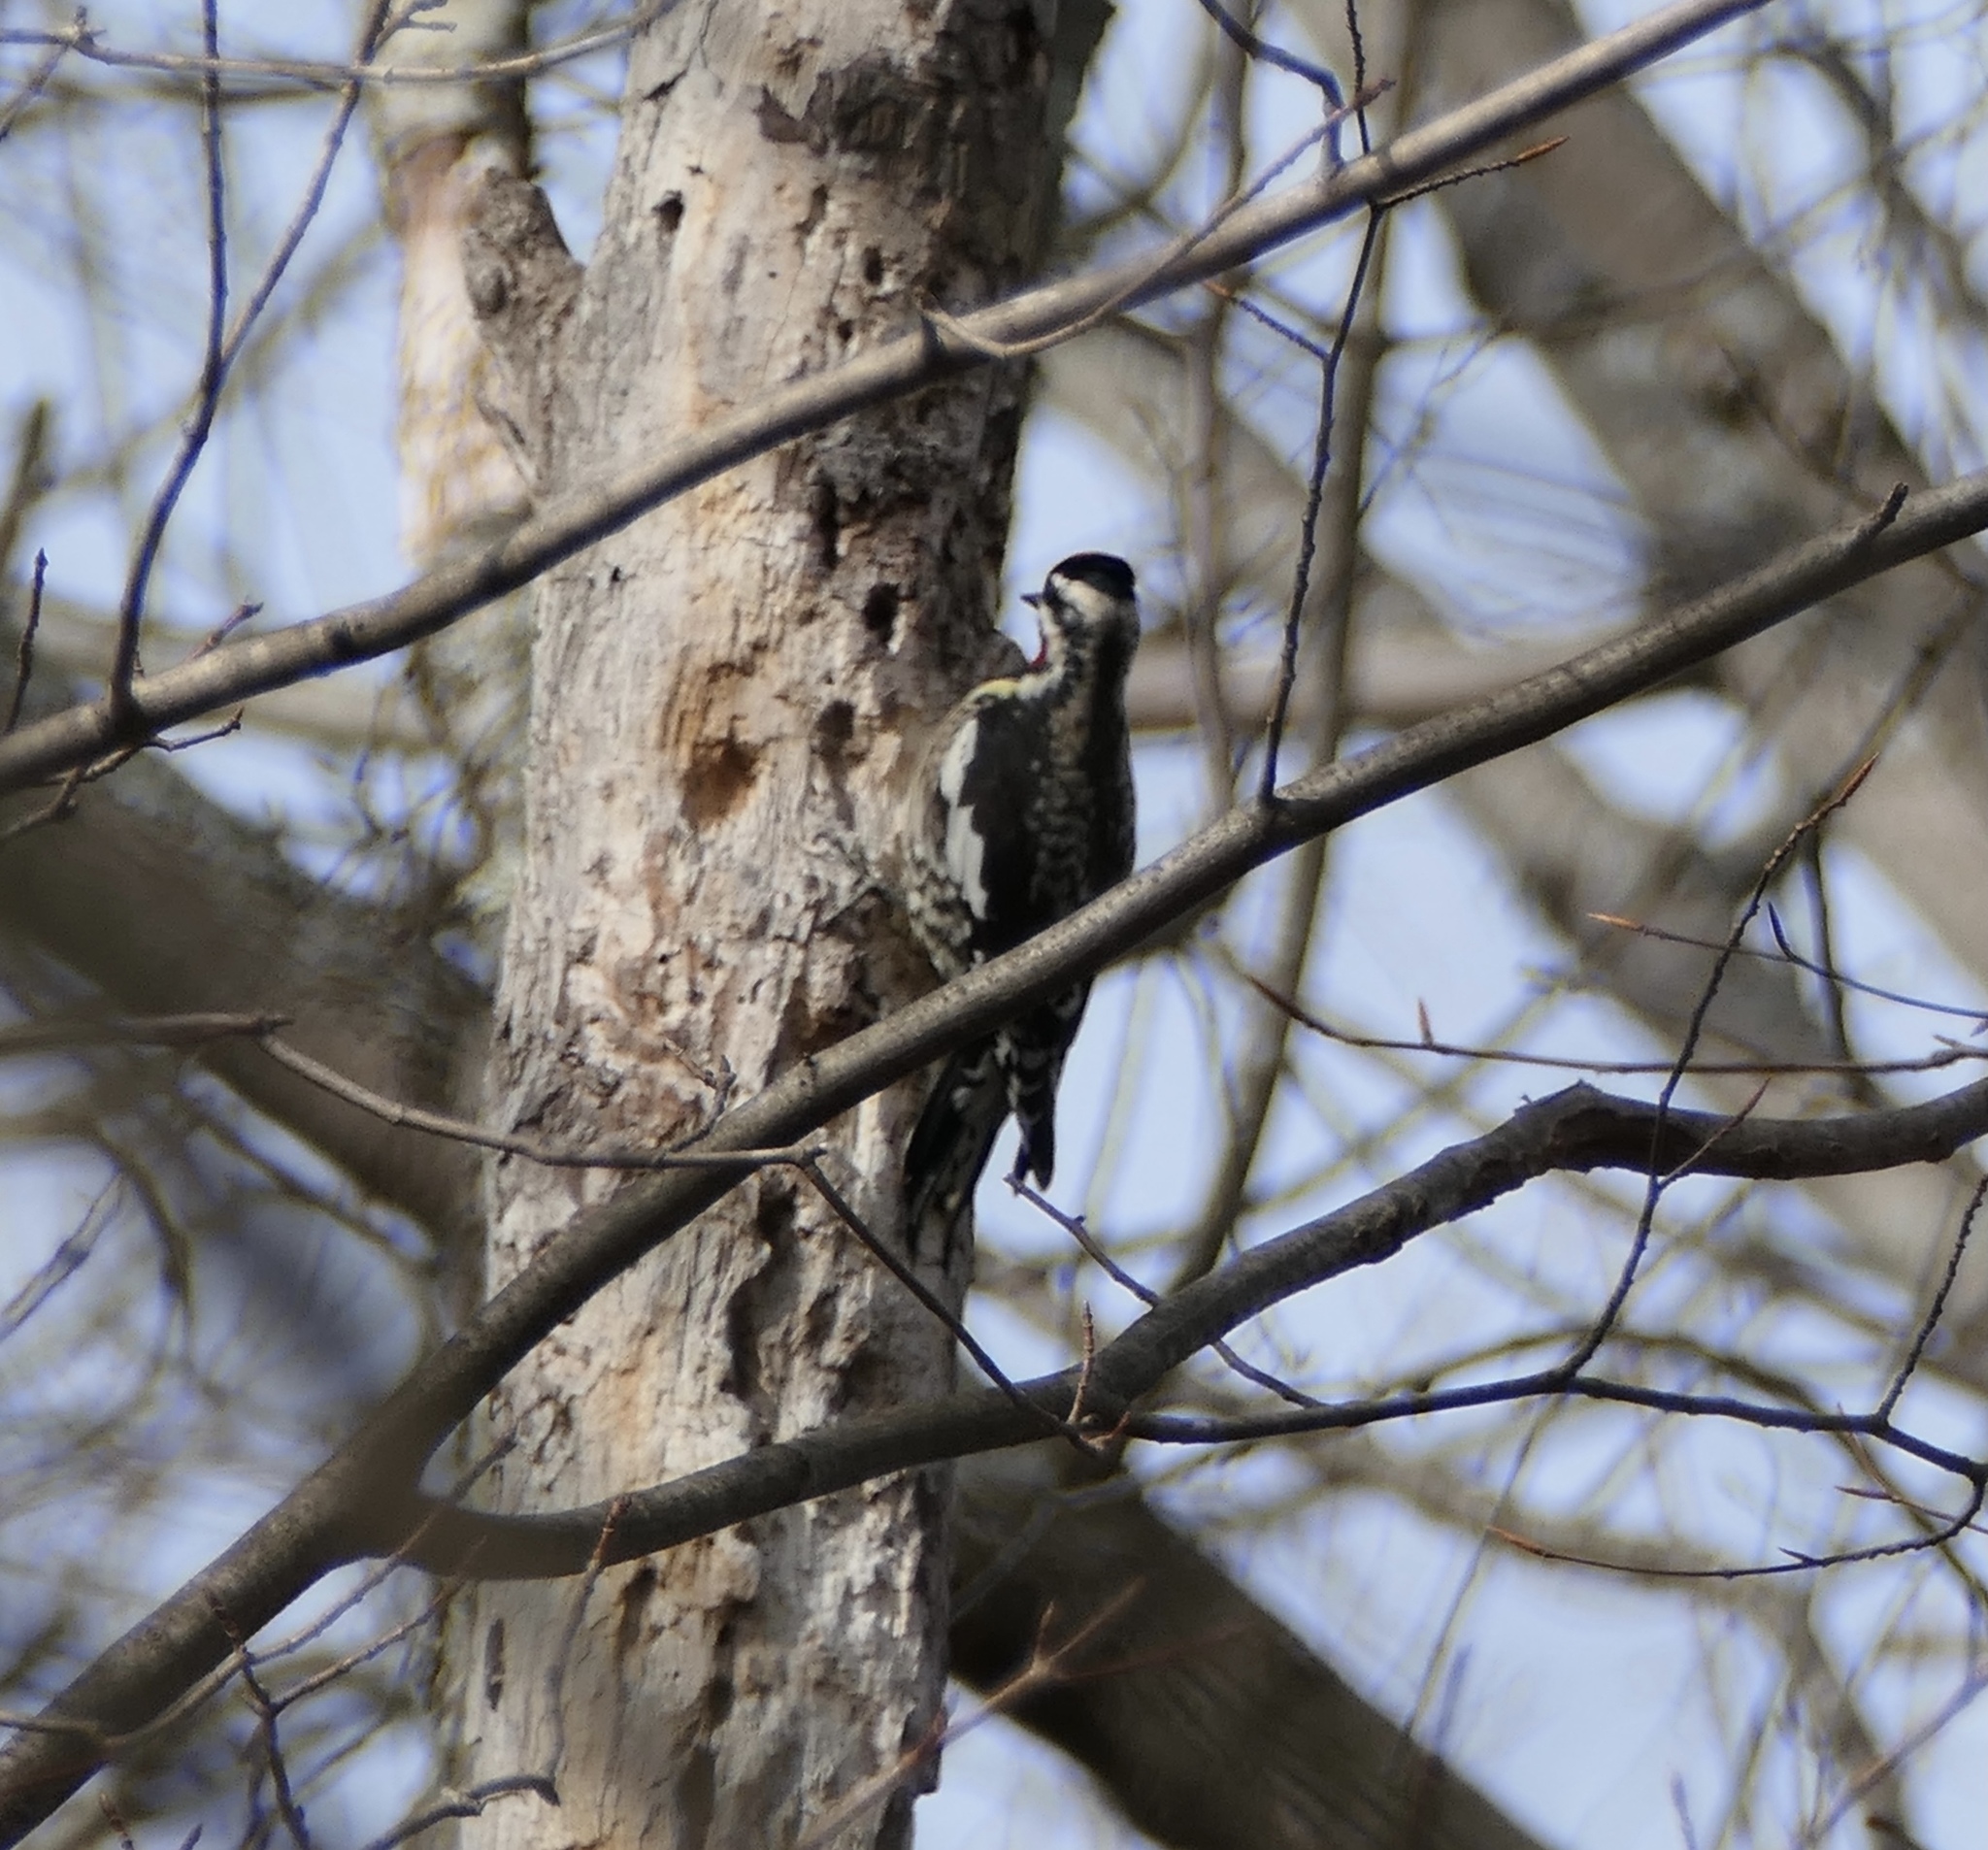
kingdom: Animalia
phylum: Chordata
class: Aves
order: Piciformes
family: Picidae
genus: Sphyrapicus
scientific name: Sphyrapicus varius
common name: Yellow-bellied sapsucker
